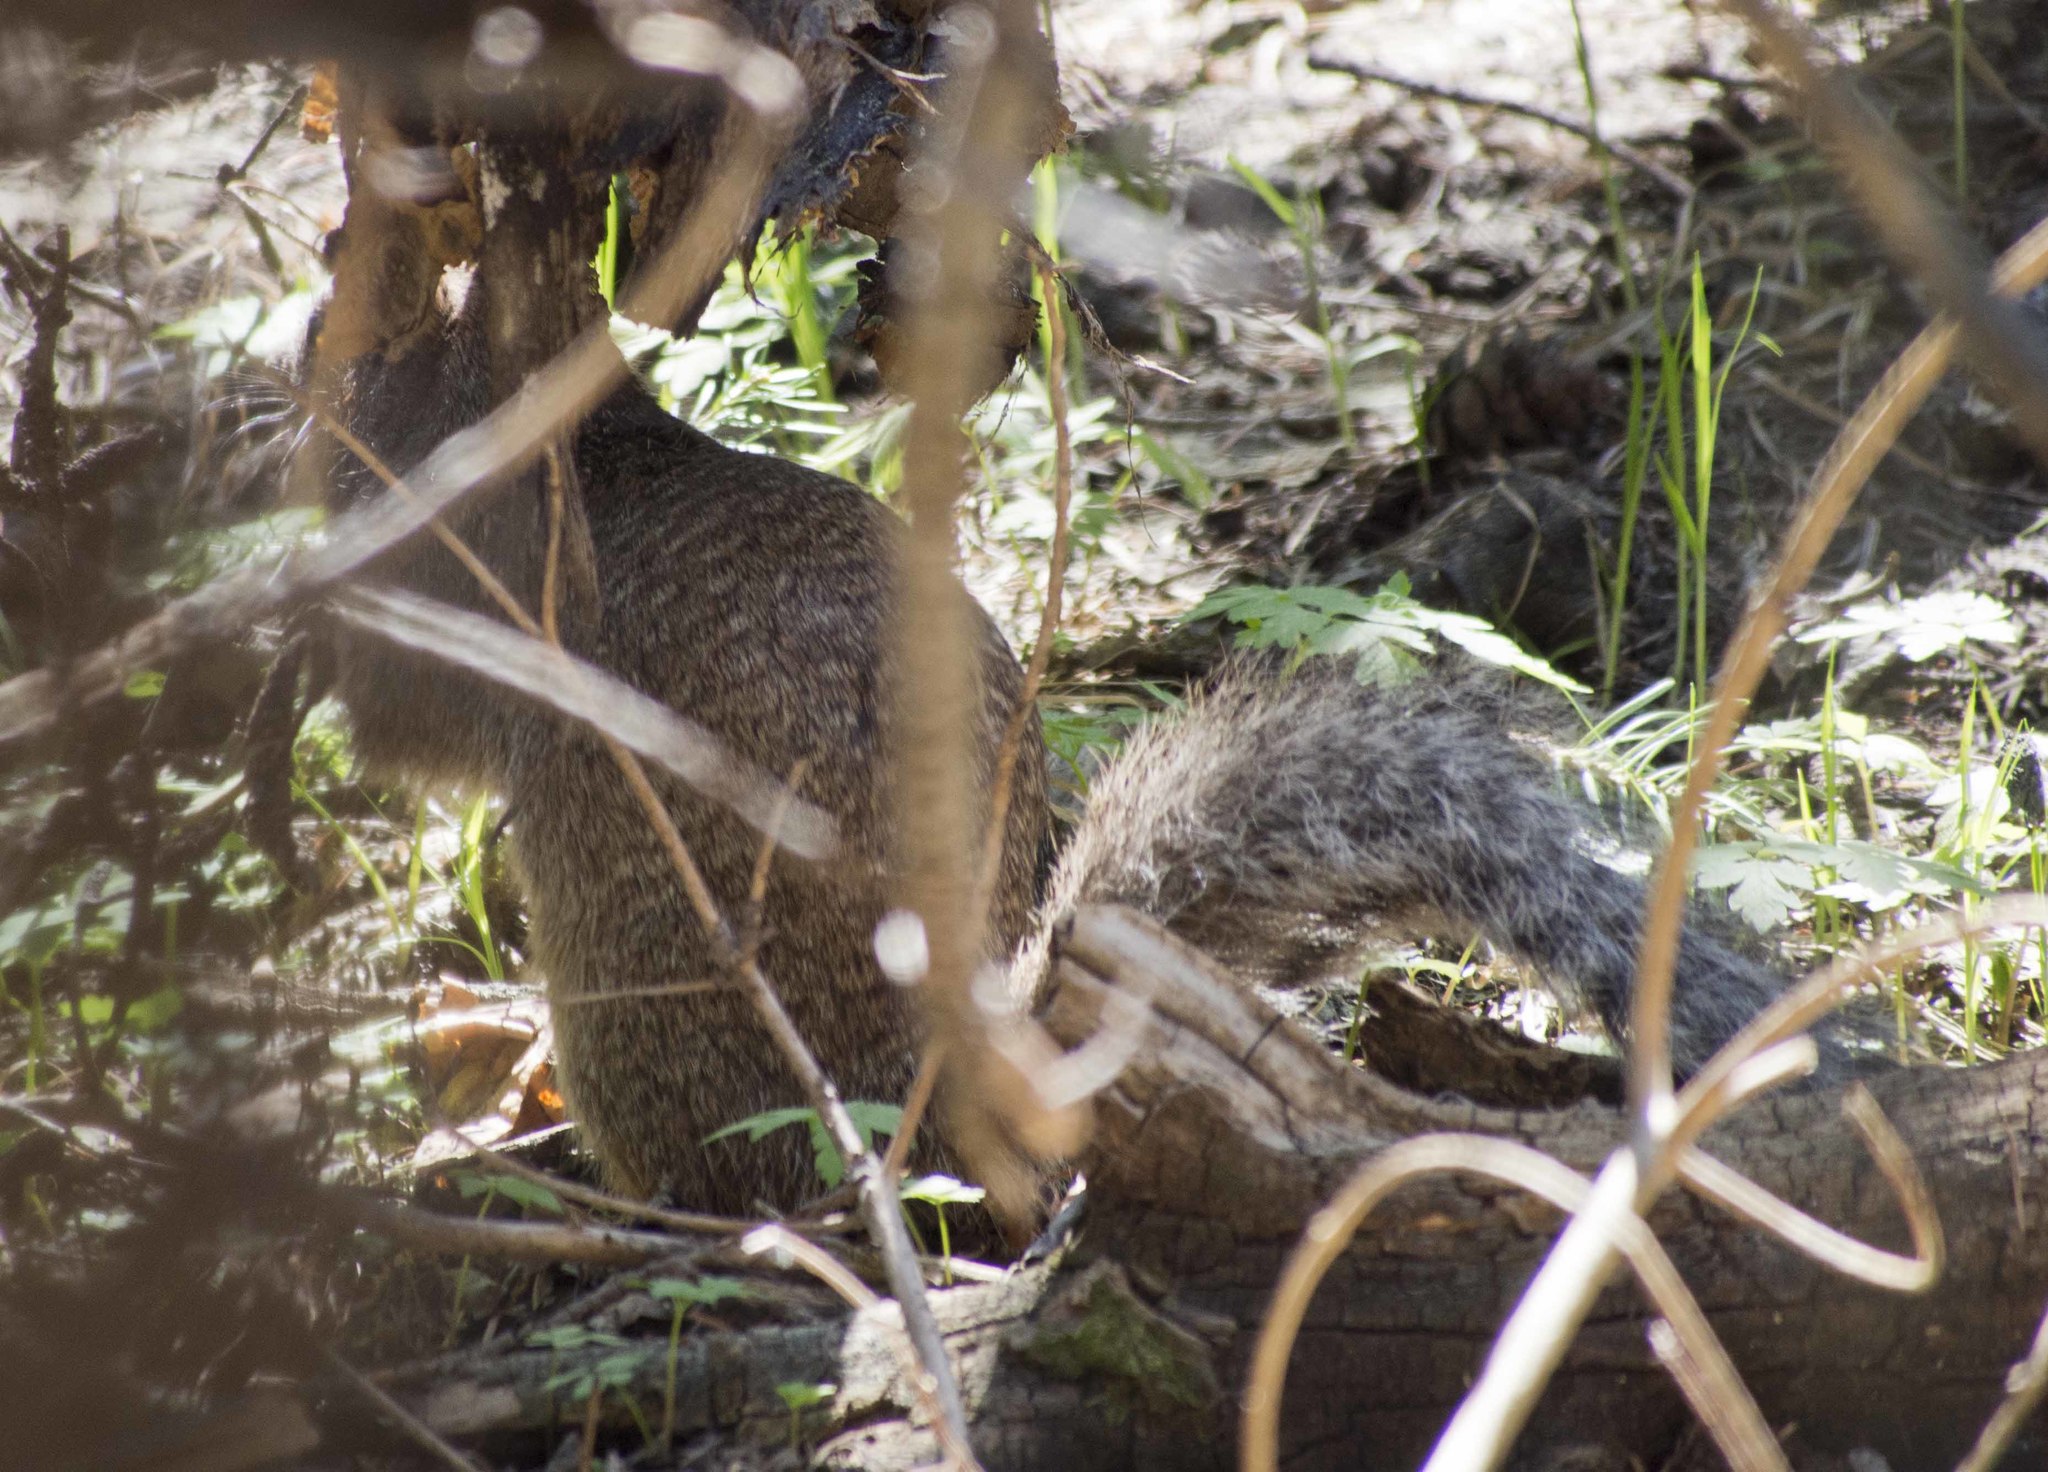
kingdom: Animalia
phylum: Chordata
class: Mammalia
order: Rodentia
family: Sciuridae
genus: Otospermophilus
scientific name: Otospermophilus variegatus
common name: Rock squirrel
